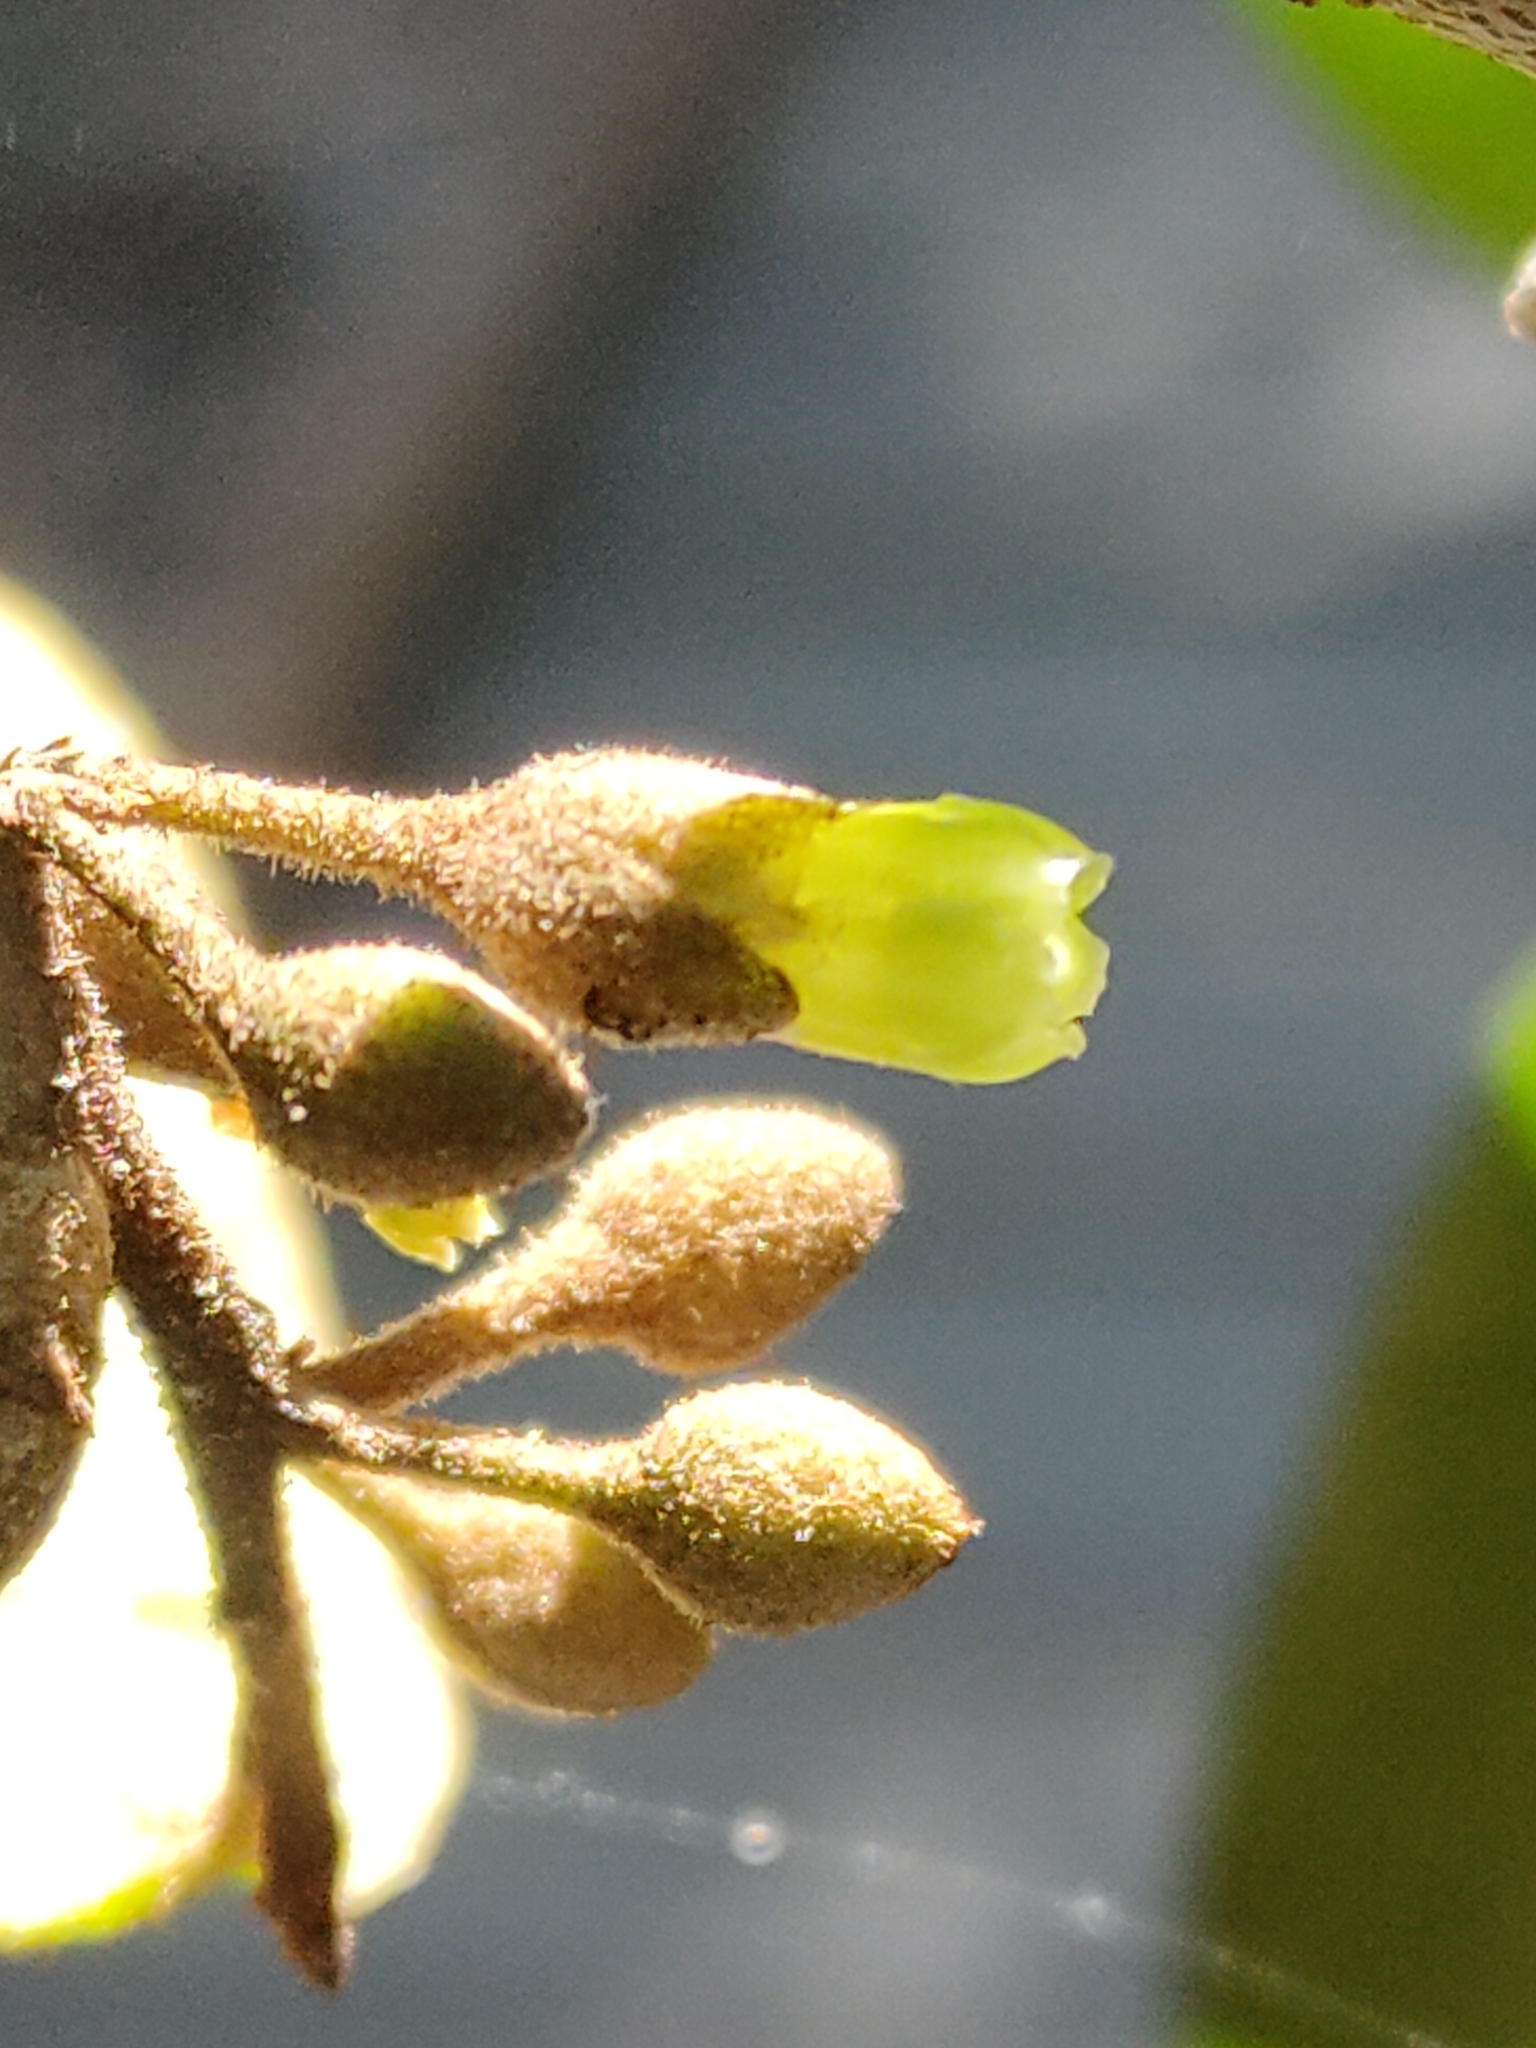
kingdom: Plantae
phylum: Tracheophyta
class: Magnoliopsida
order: Ericales
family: Sapotaceae
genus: Planchonella
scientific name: Planchonella myrsinifolia
